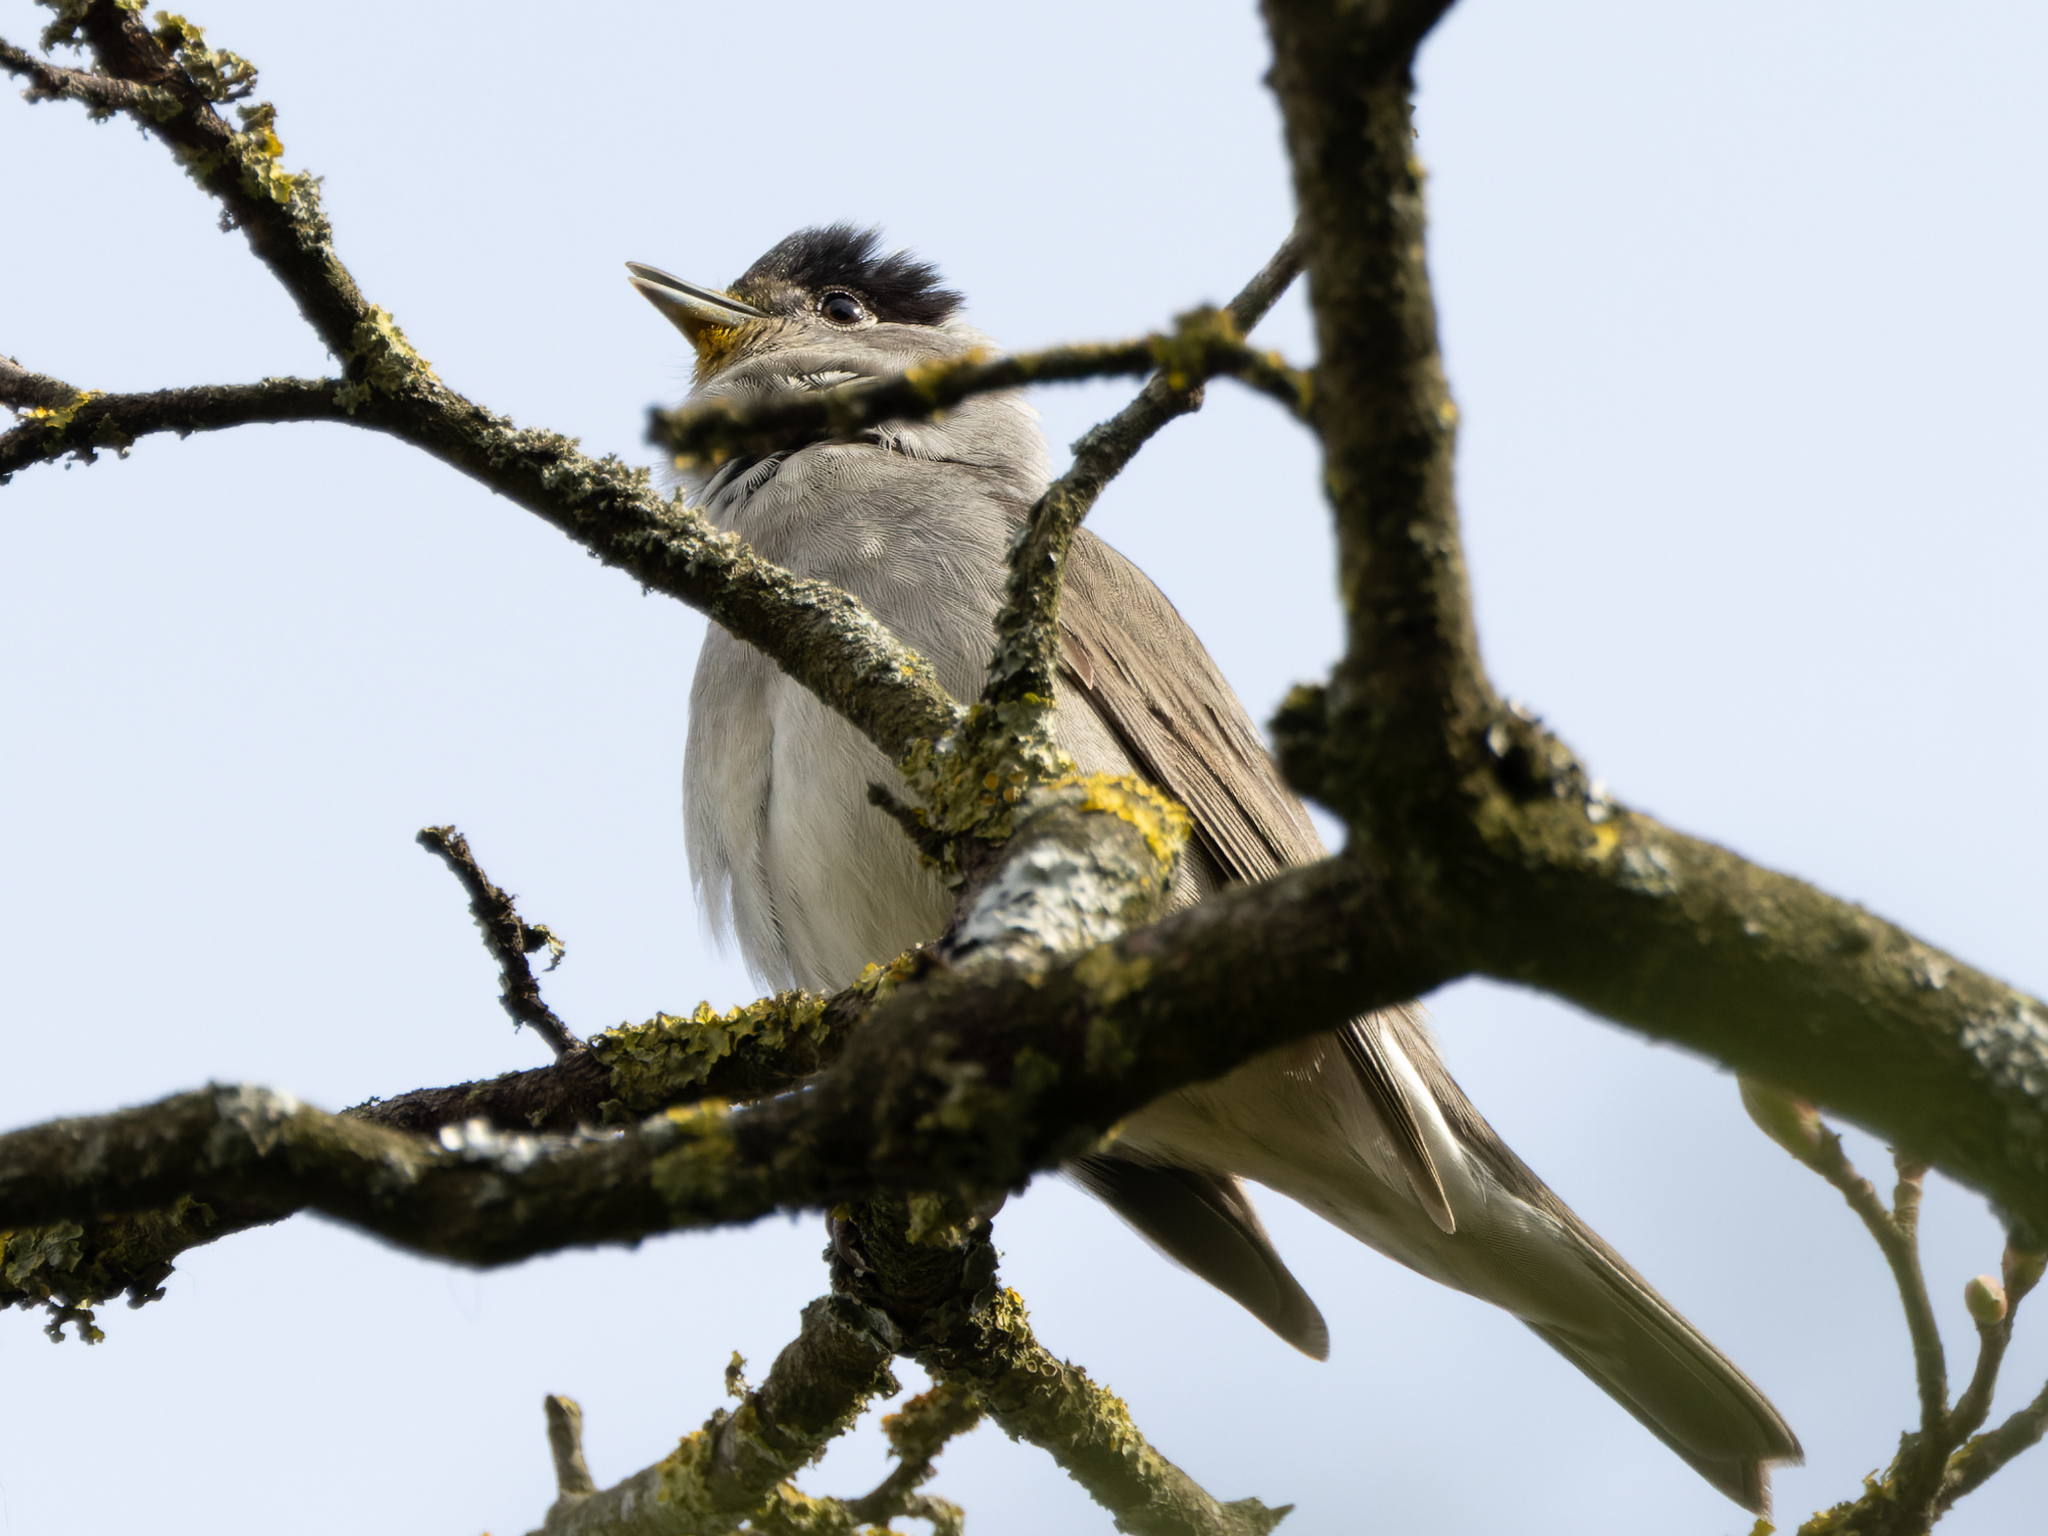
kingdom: Animalia
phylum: Chordata
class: Aves
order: Passeriformes
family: Sylviidae
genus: Sylvia
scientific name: Sylvia atricapilla
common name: Eurasian blackcap
